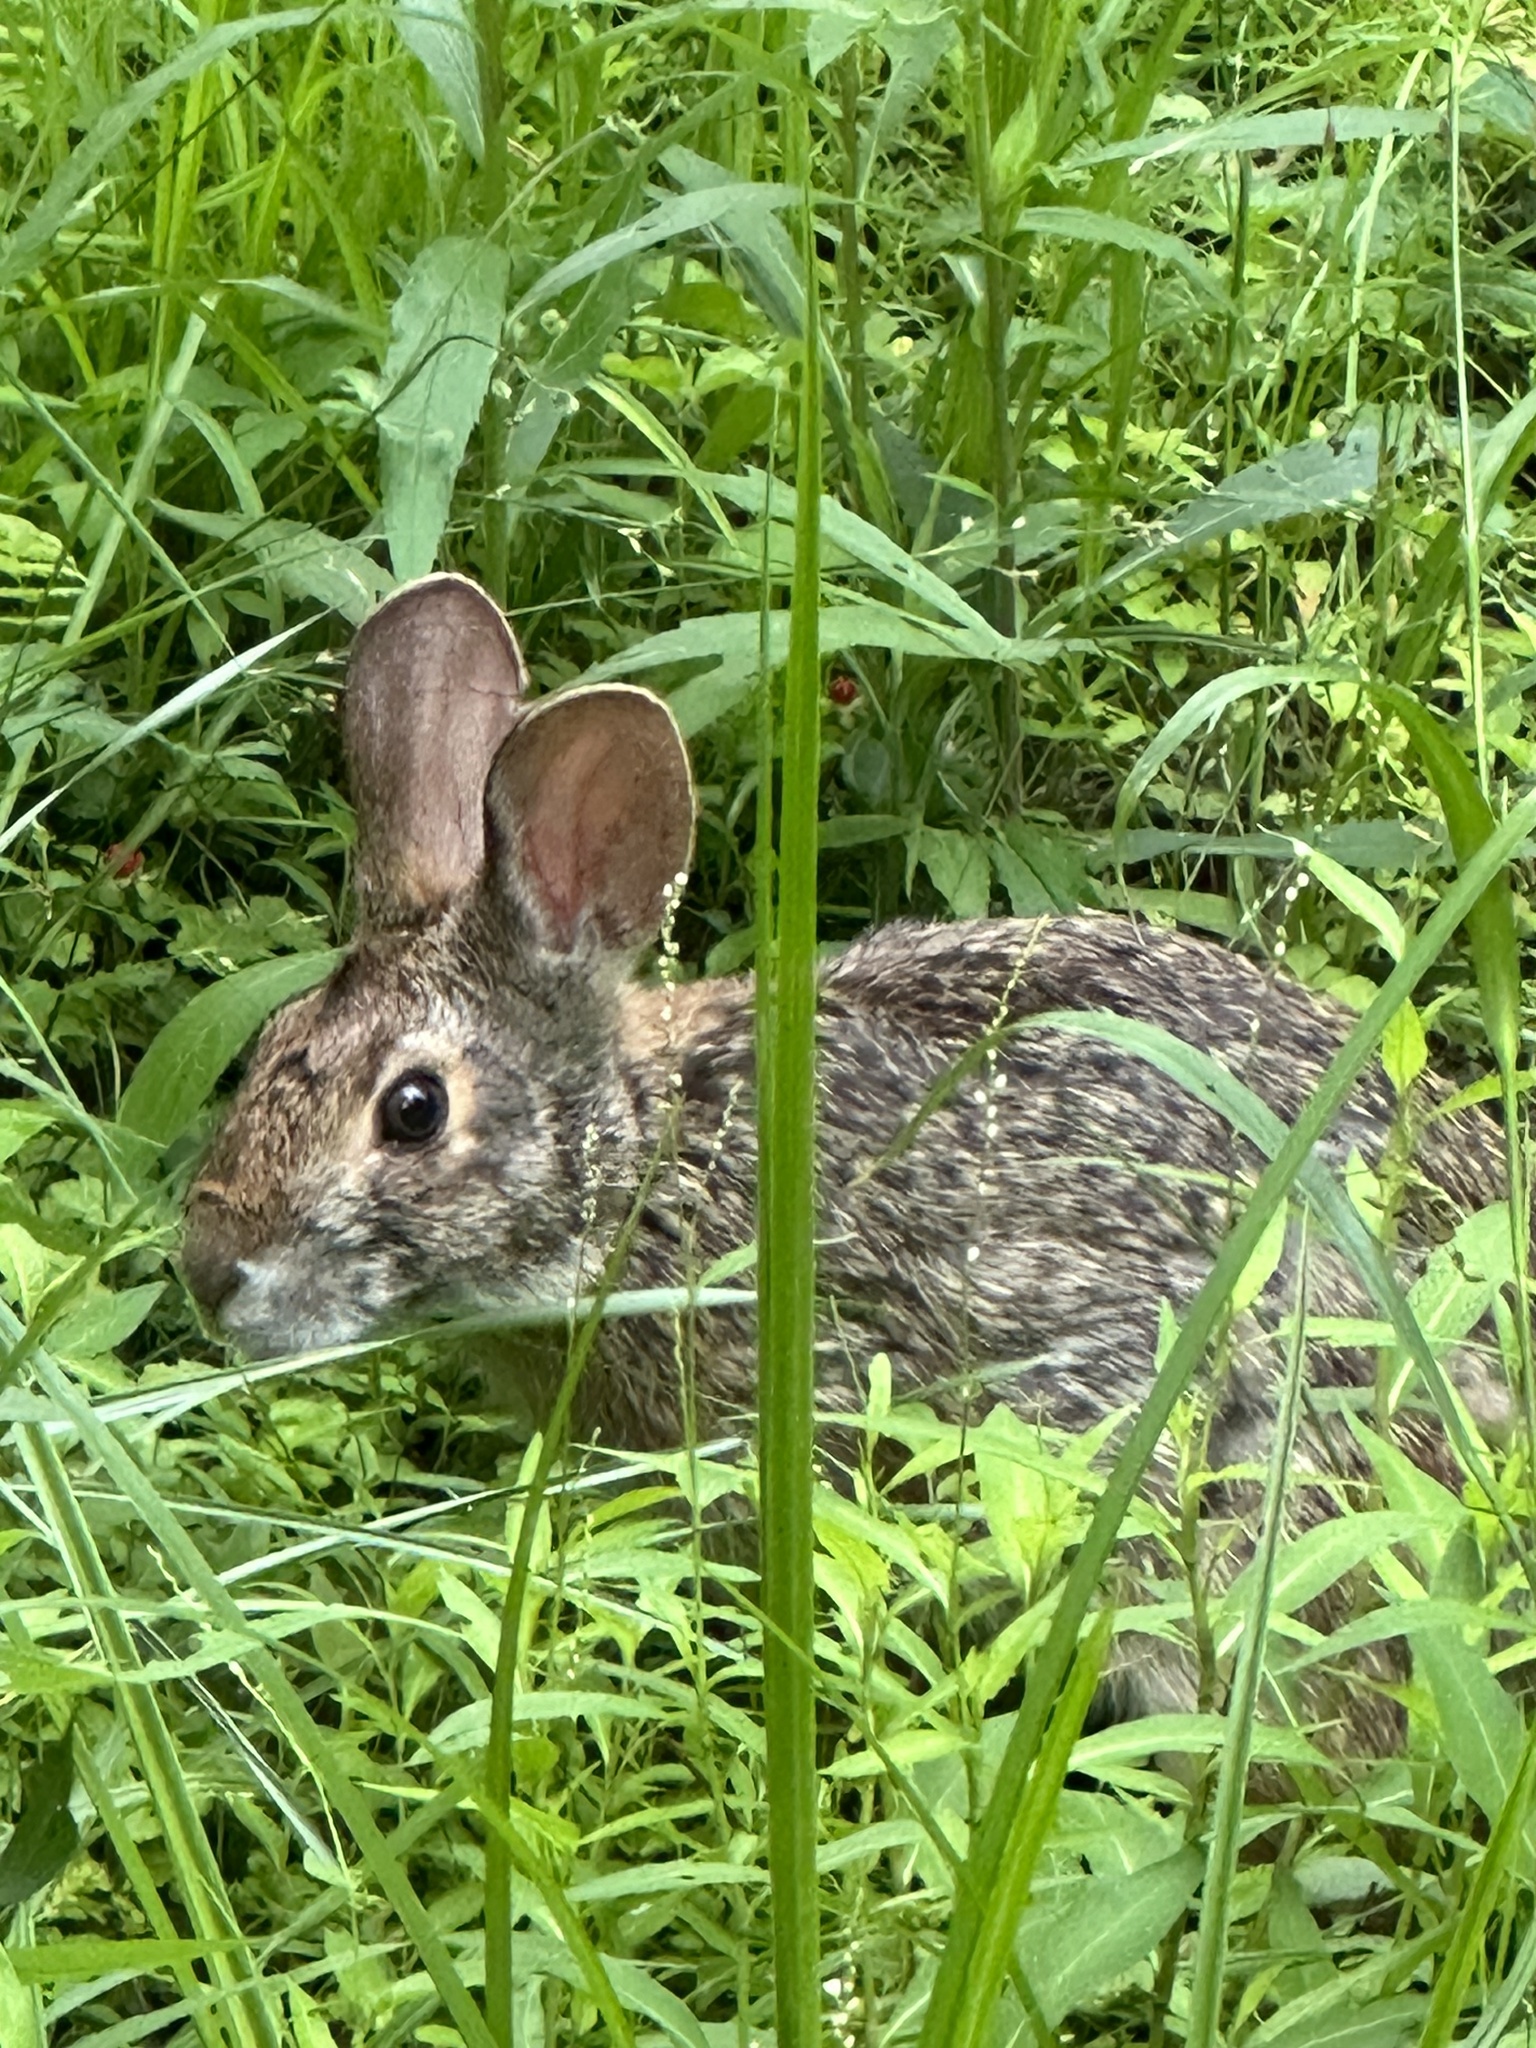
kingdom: Animalia
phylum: Chordata
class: Mammalia
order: Lagomorpha
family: Leporidae
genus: Sylvilagus
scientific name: Sylvilagus aquaticus
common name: Swamp rabbit
